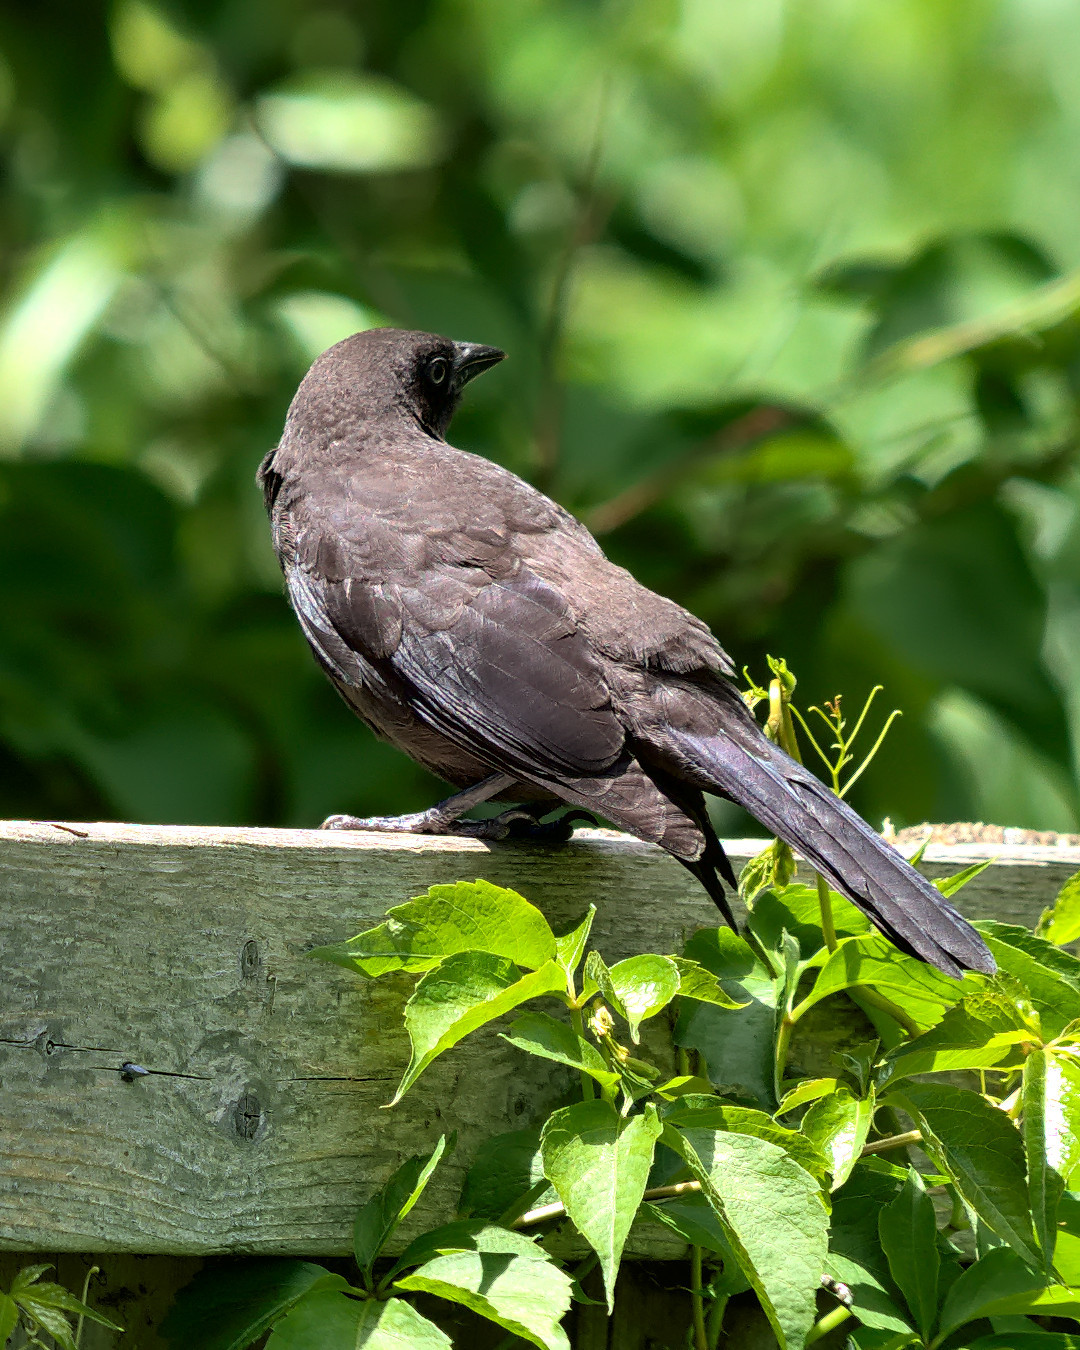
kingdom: Animalia
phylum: Chordata
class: Aves
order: Passeriformes
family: Icteridae
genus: Quiscalus
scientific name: Quiscalus quiscula
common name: Common grackle
